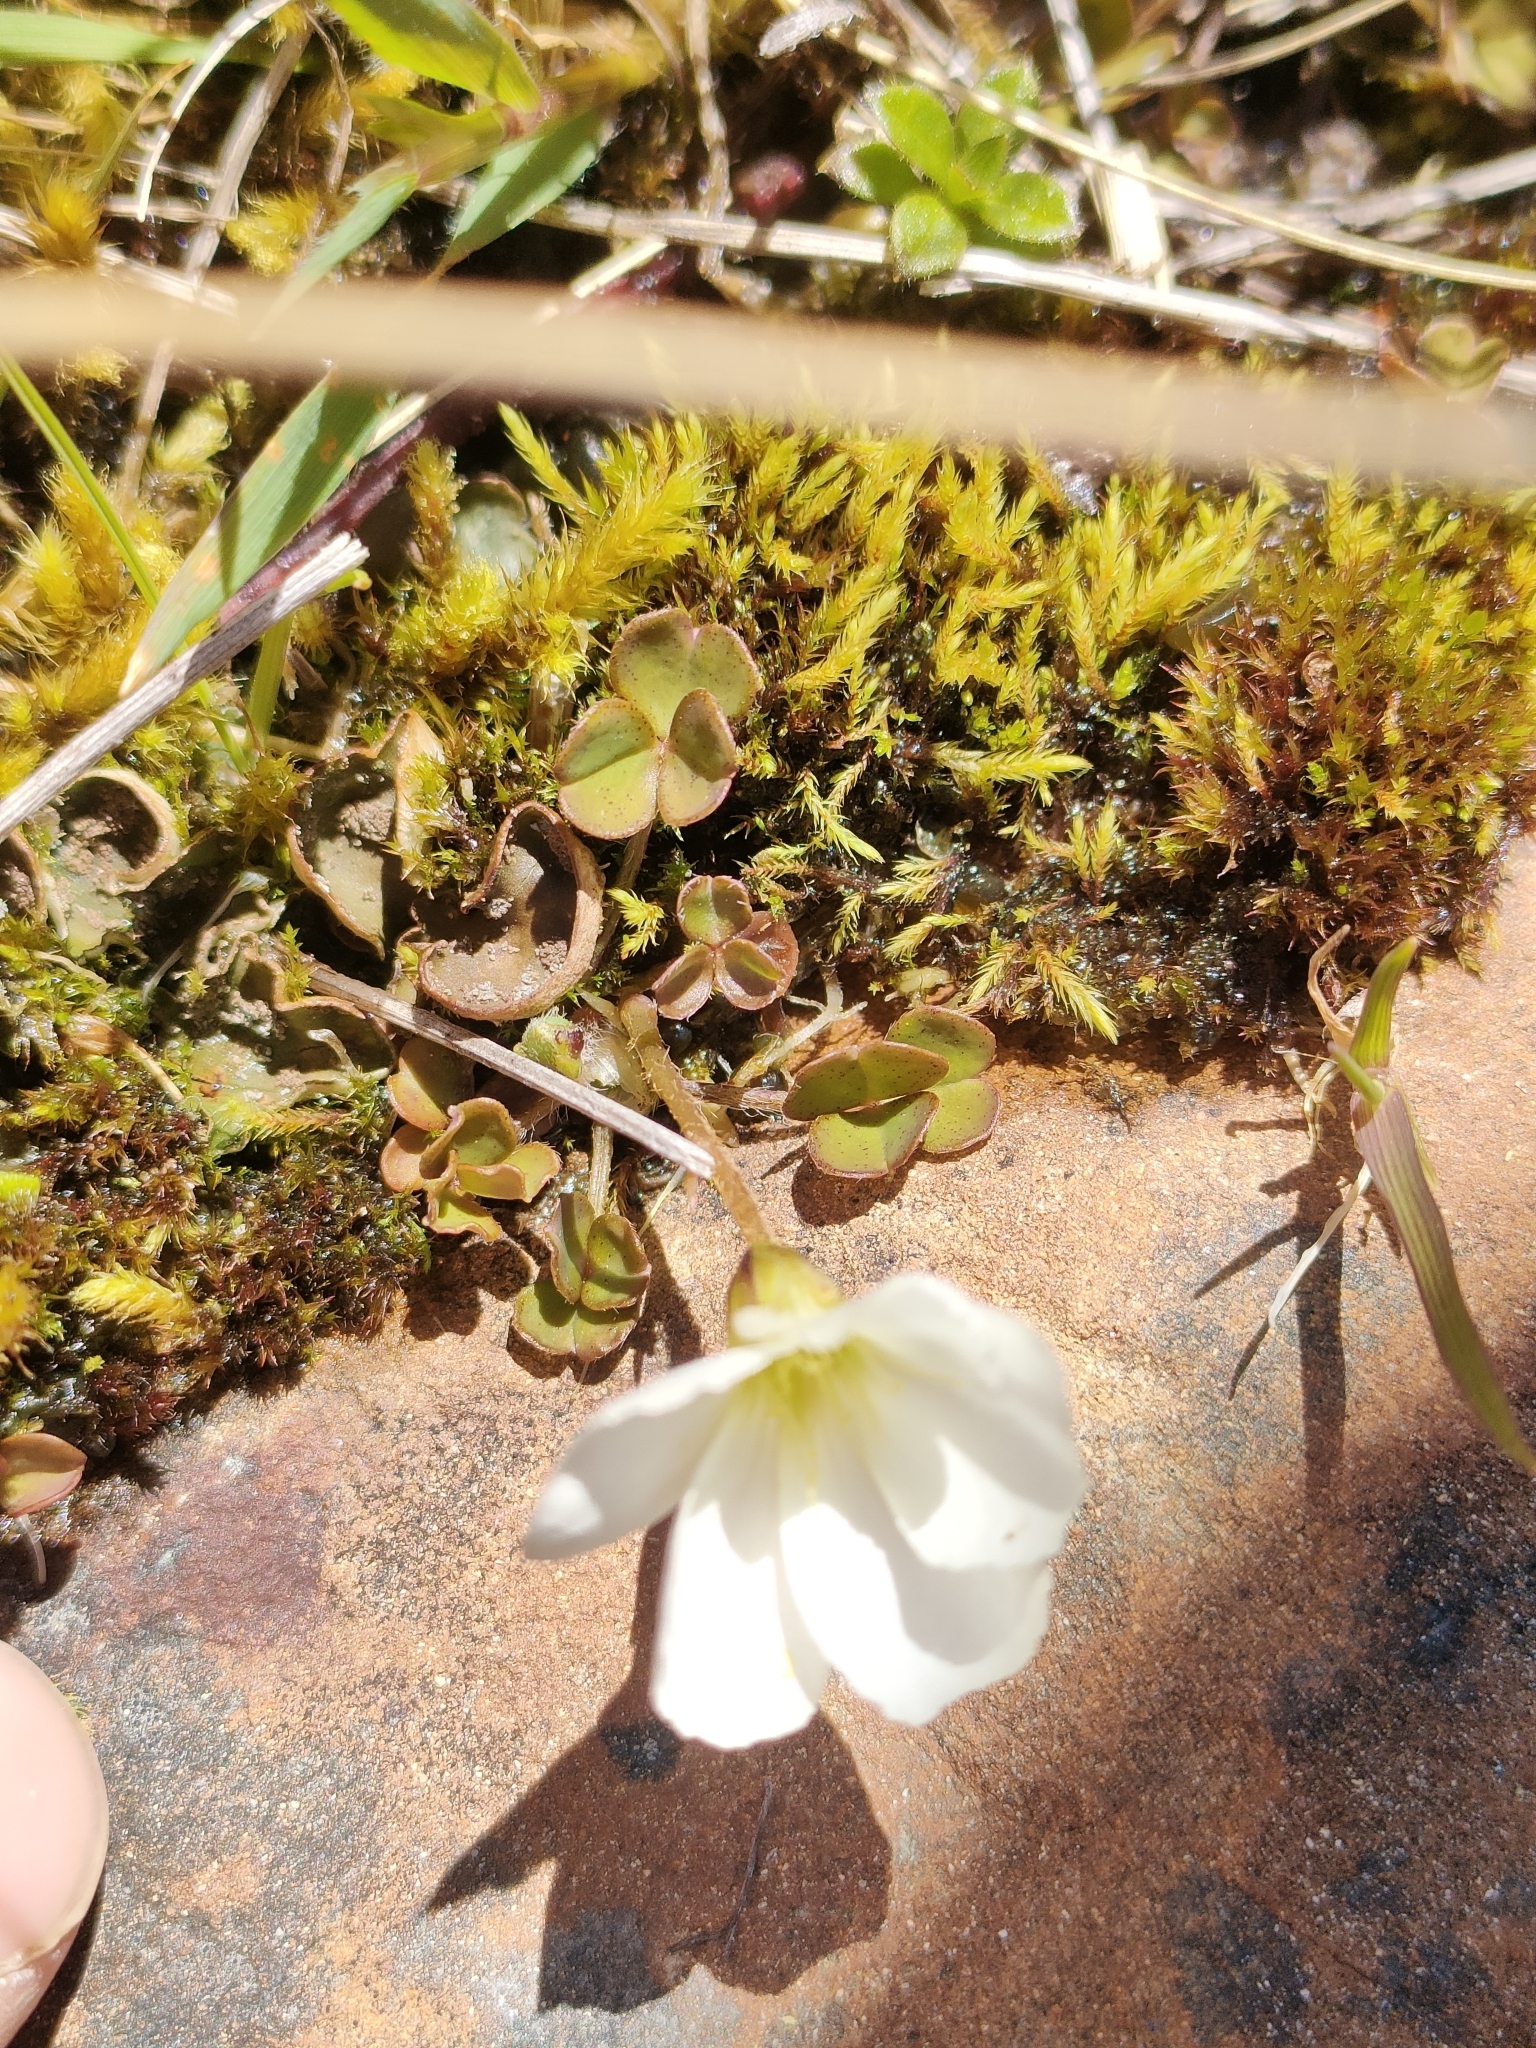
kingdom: Plantae
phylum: Tracheophyta
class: Magnoliopsida
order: Oxalidales
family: Oxalidaceae
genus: Oxalis
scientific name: Oxalis magellanica
